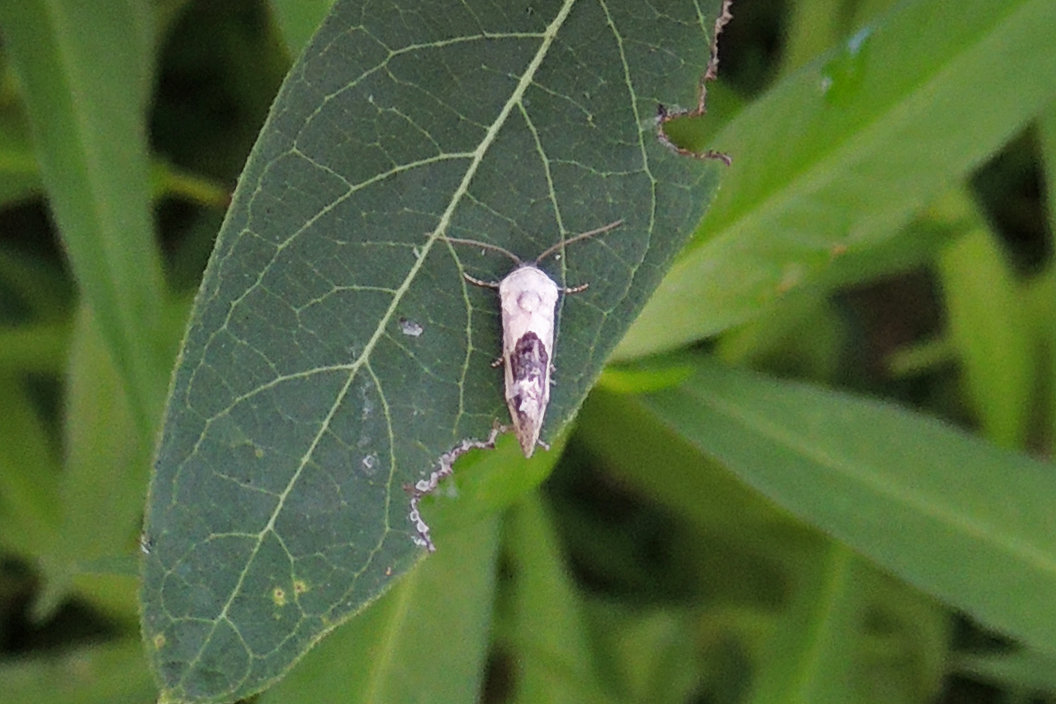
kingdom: Animalia
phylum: Arthropoda
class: Insecta
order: Lepidoptera
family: Noctuidae
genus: Acontia
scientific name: Acontia erastrioides
